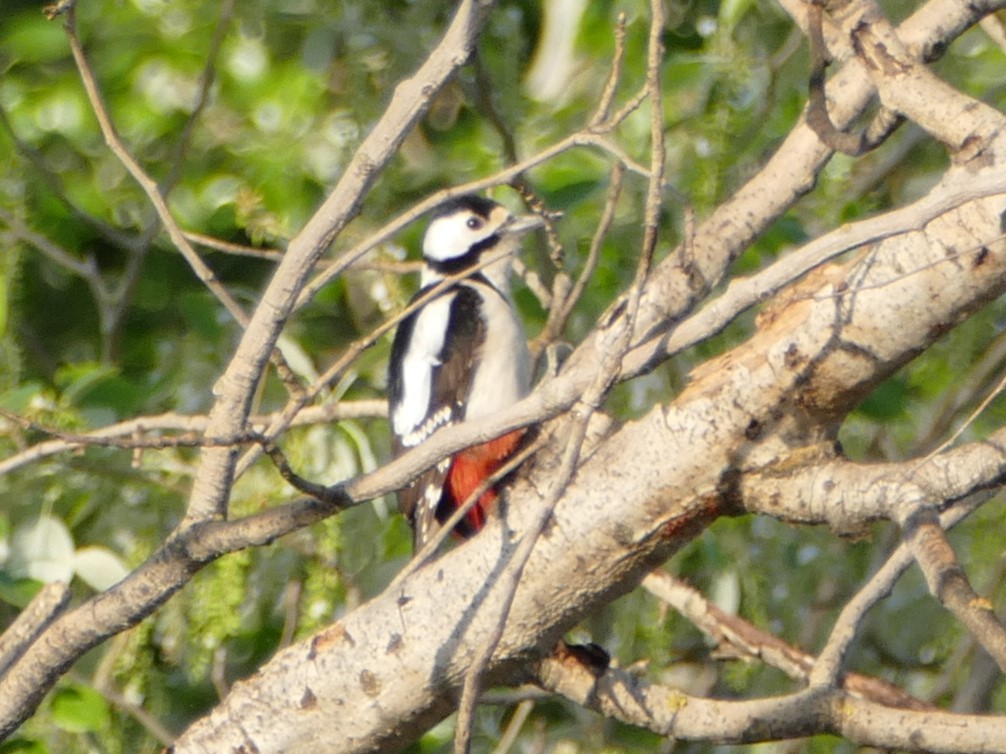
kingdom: Animalia
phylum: Chordata
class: Aves
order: Piciformes
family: Picidae
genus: Dendrocopos
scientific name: Dendrocopos major
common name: Great spotted woodpecker
